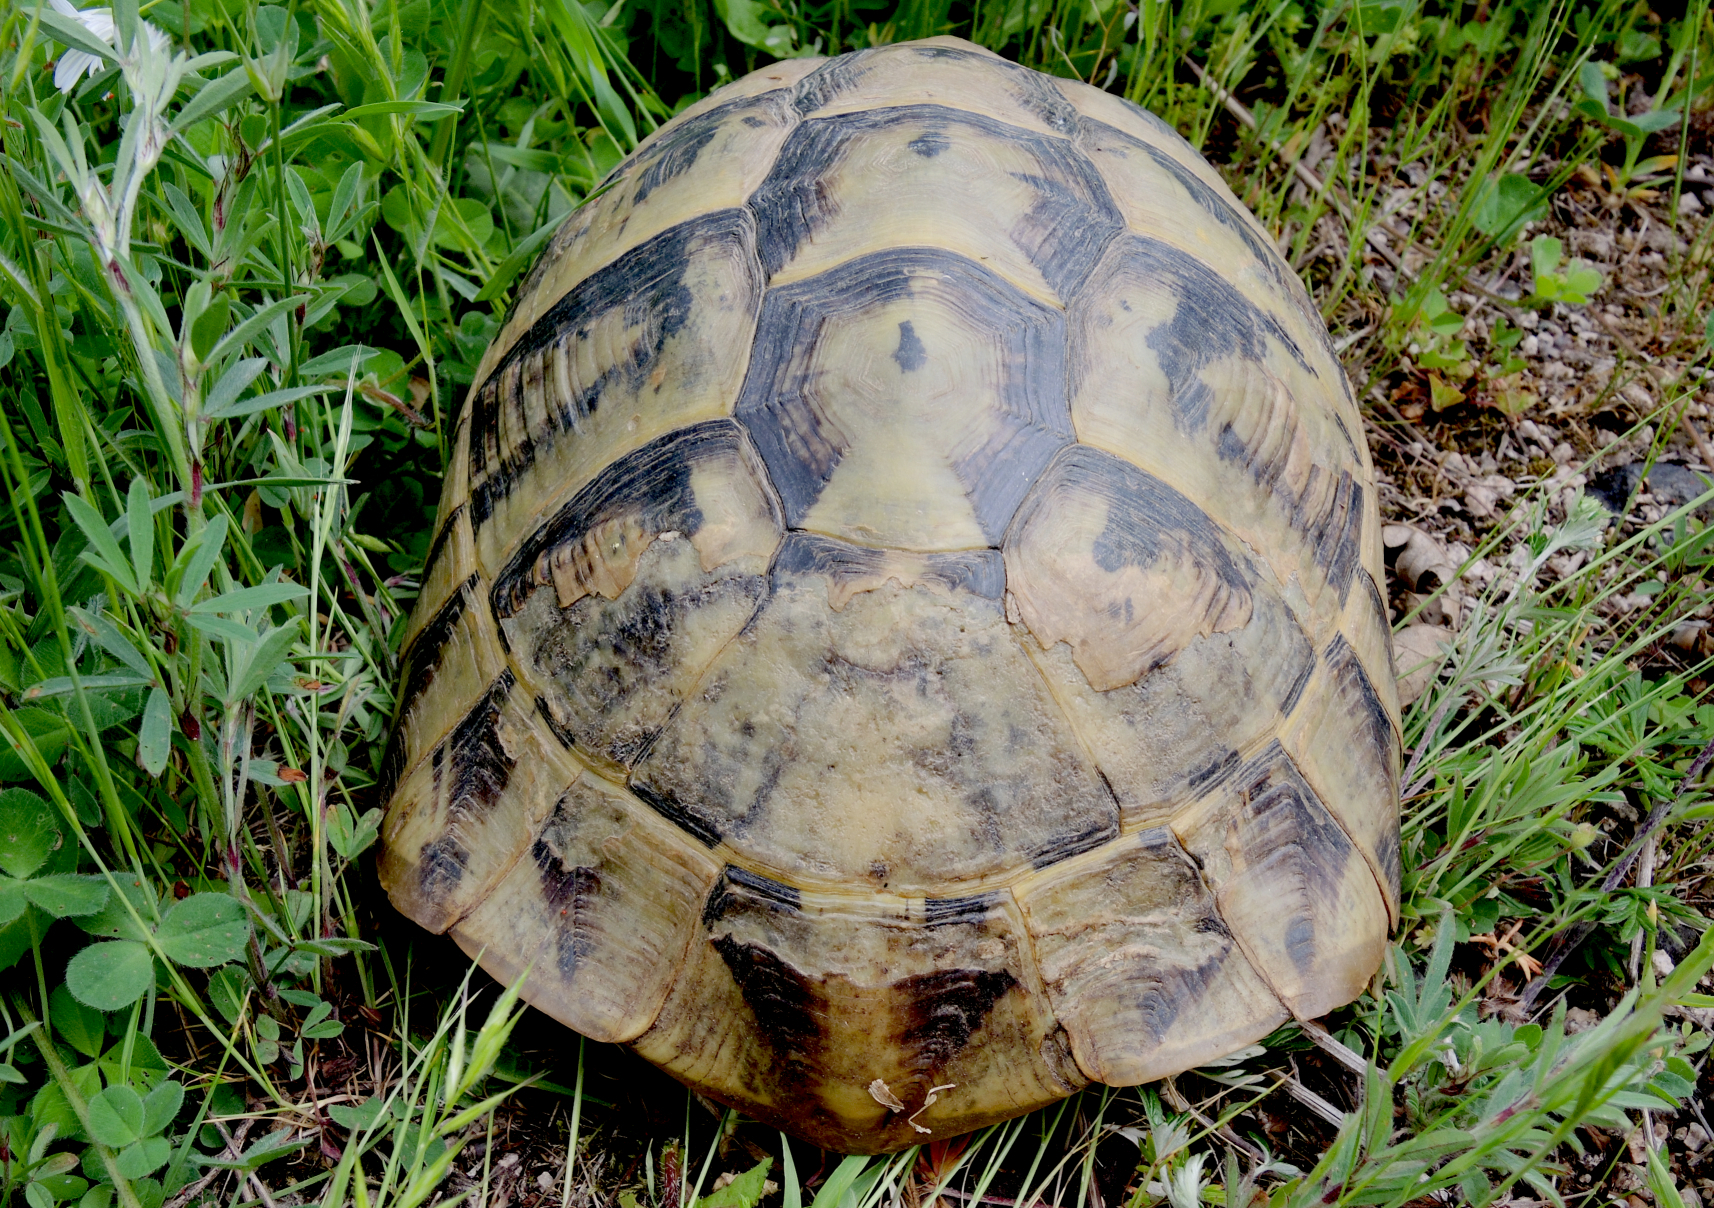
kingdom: Animalia
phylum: Chordata
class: Testudines
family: Testudinidae
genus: Testudo
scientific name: Testudo hermanni
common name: Hermann's tortoise
